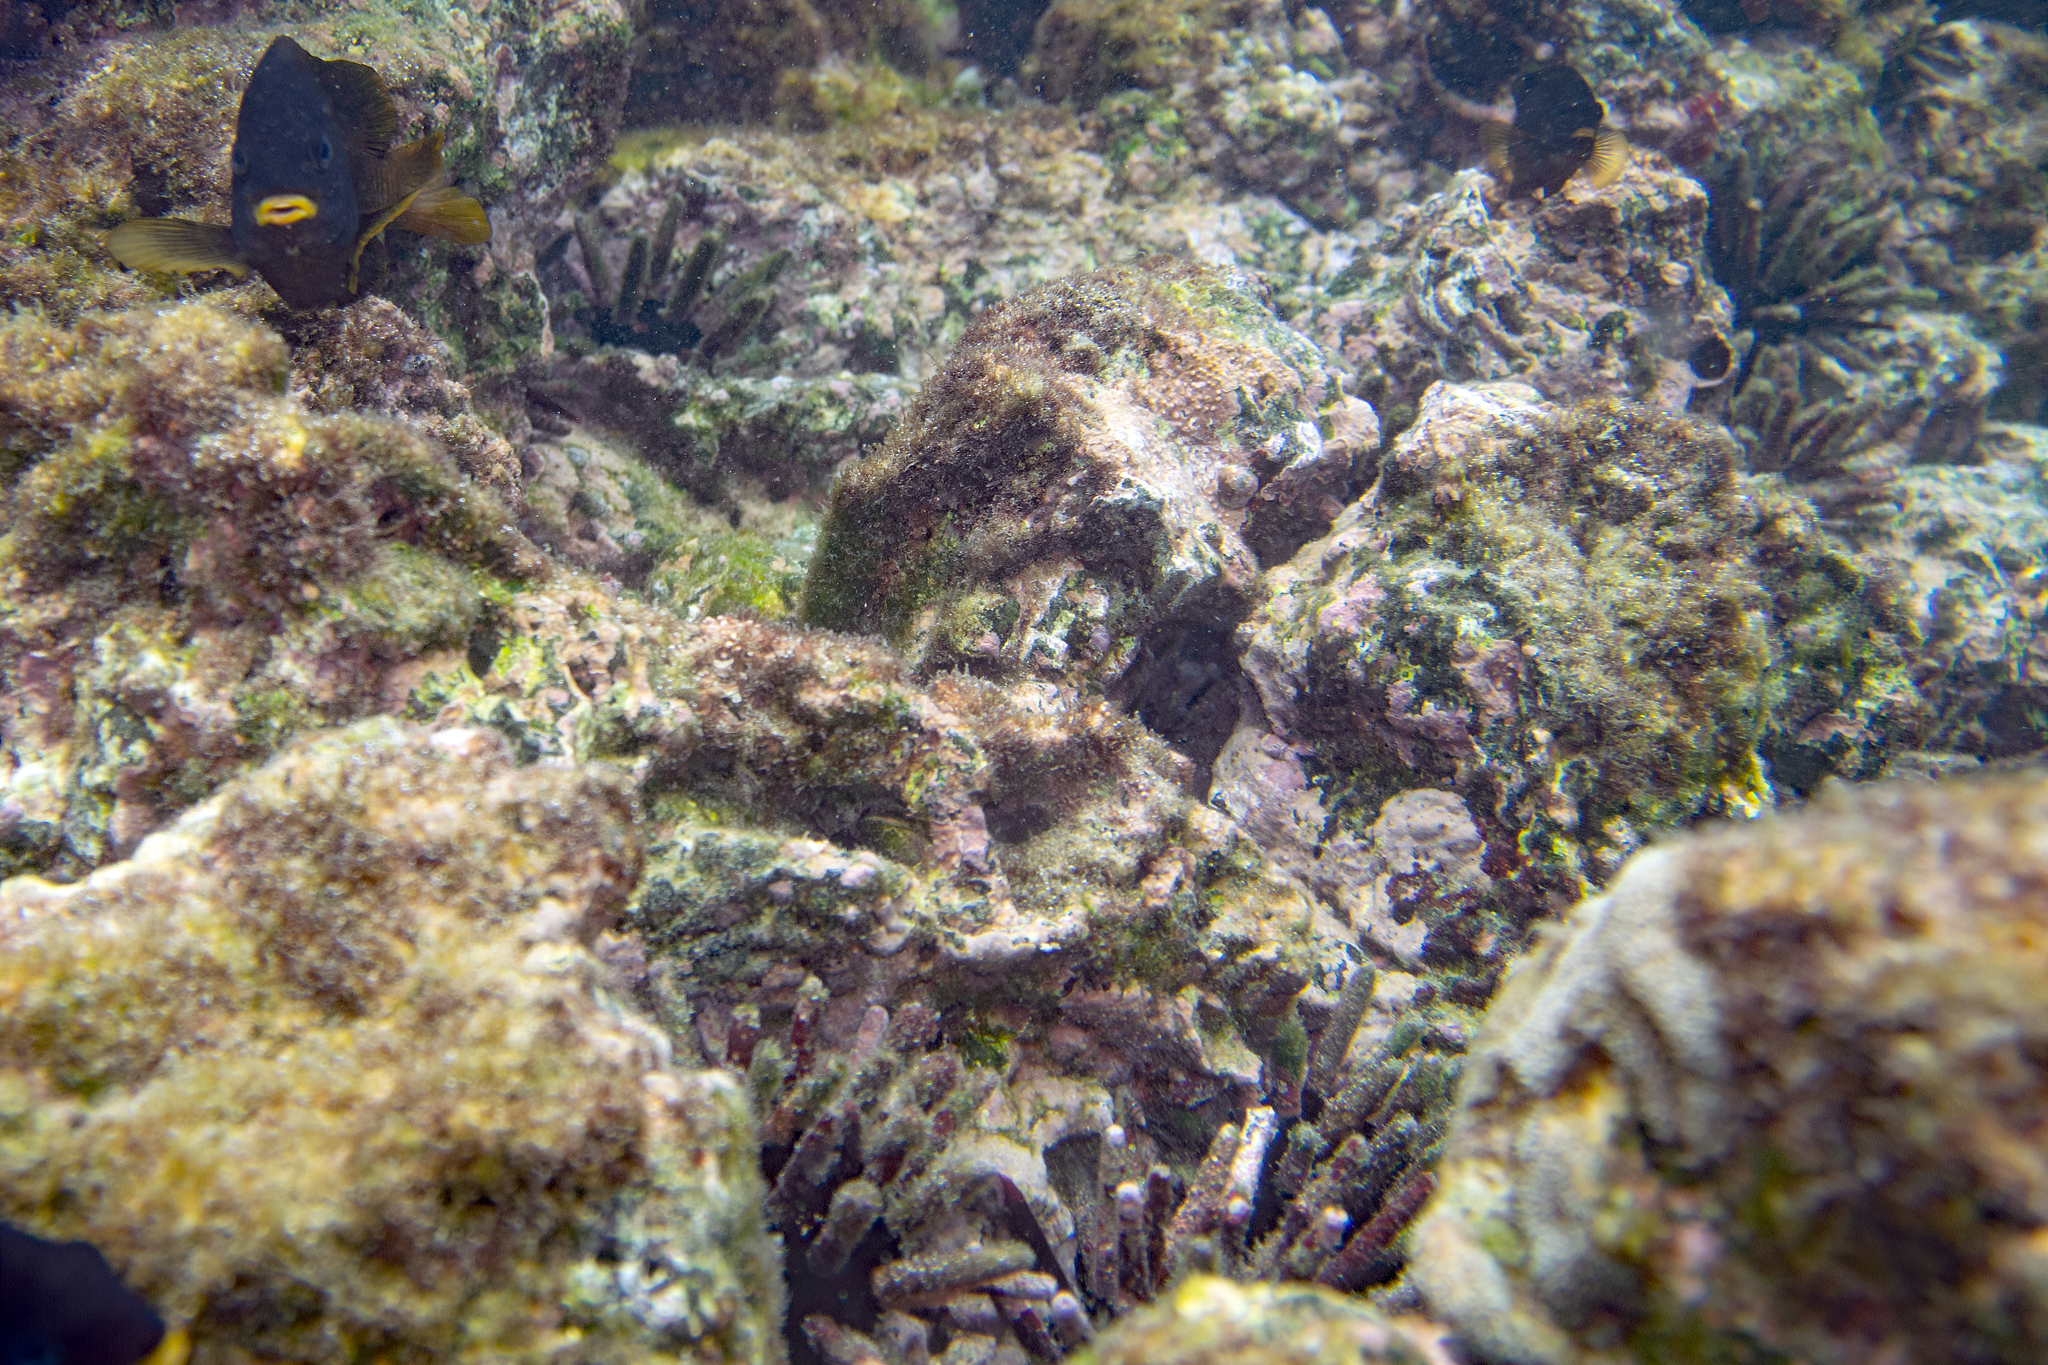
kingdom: Animalia
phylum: Echinodermata
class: Echinoidea
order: Cidaroida
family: Cidaridae
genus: Eucidaris
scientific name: Eucidaris galapagensis
